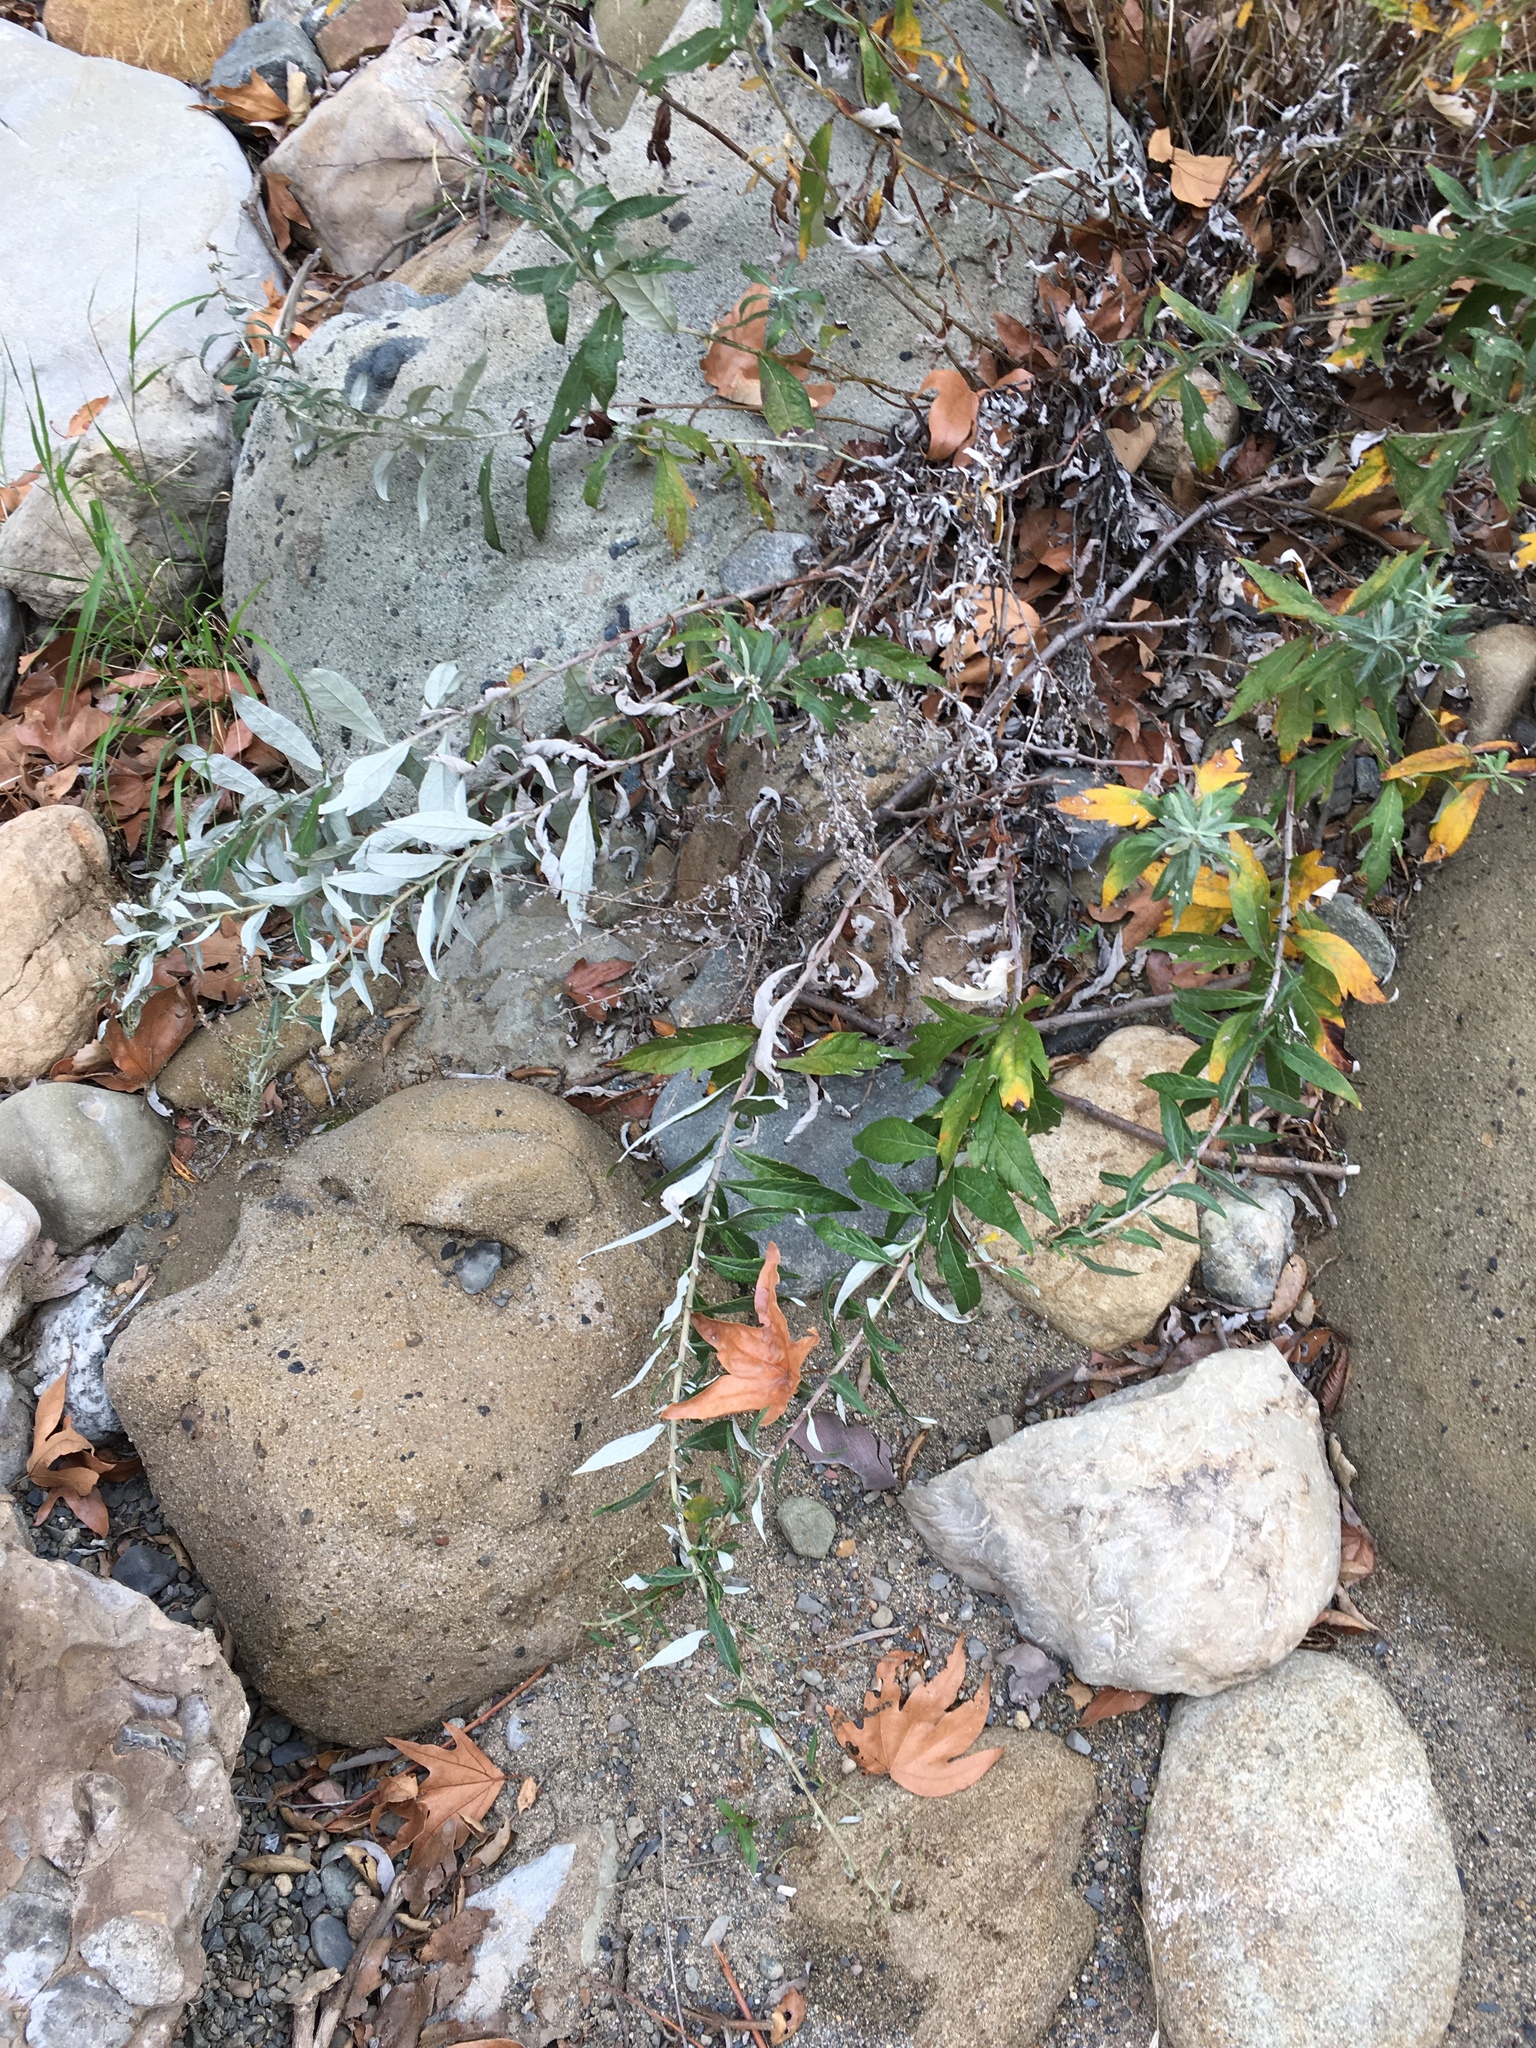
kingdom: Plantae
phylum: Tracheophyta
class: Magnoliopsida
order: Asterales
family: Asteraceae
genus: Artemisia
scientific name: Artemisia douglasiana
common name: Northwest mugwort
